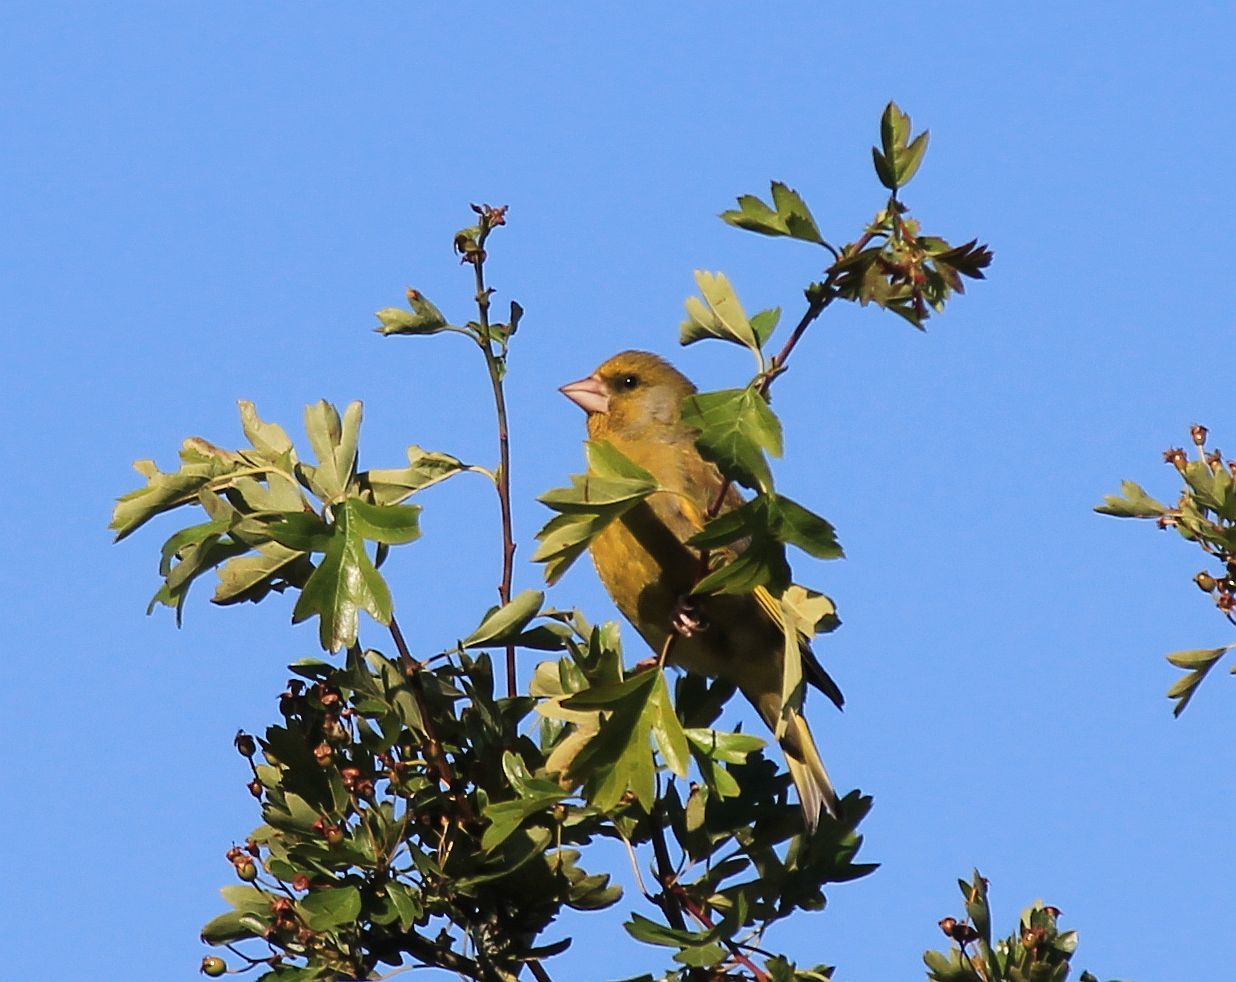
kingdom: Plantae
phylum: Tracheophyta
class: Liliopsida
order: Poales
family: Poaceae
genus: Chloris
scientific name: Chloris chloris
